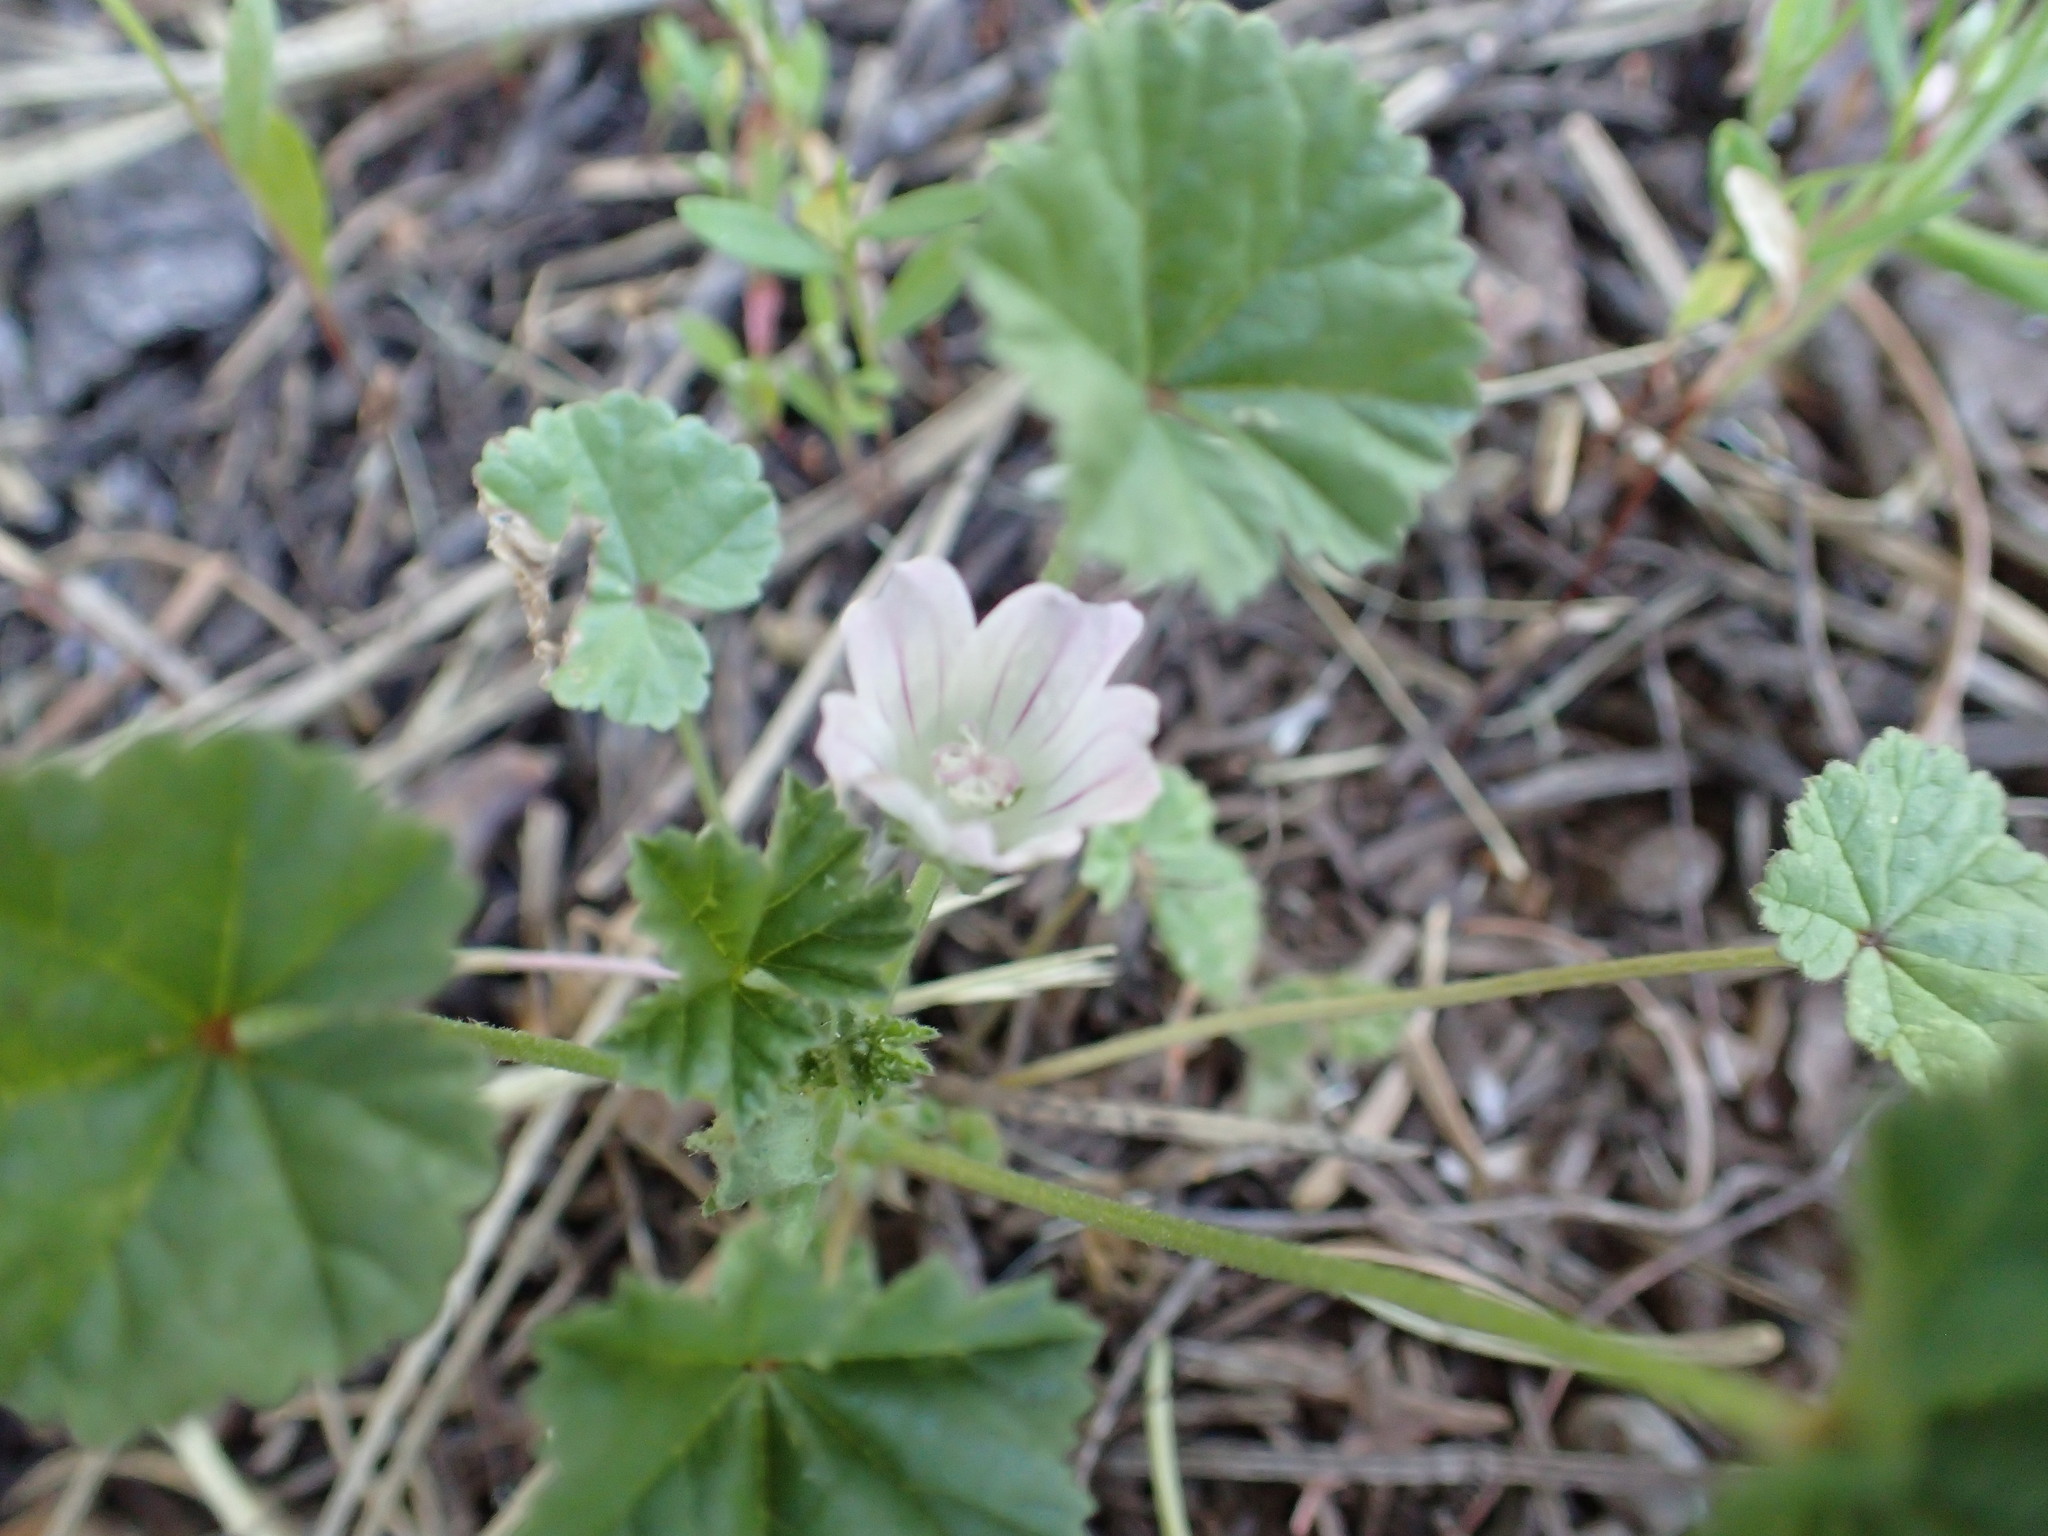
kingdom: Plantae
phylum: Tracheophyta
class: Magnoliopsida
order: Malvales
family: Malvaceae
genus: Malva
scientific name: Malva neglecta
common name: Common mallow
